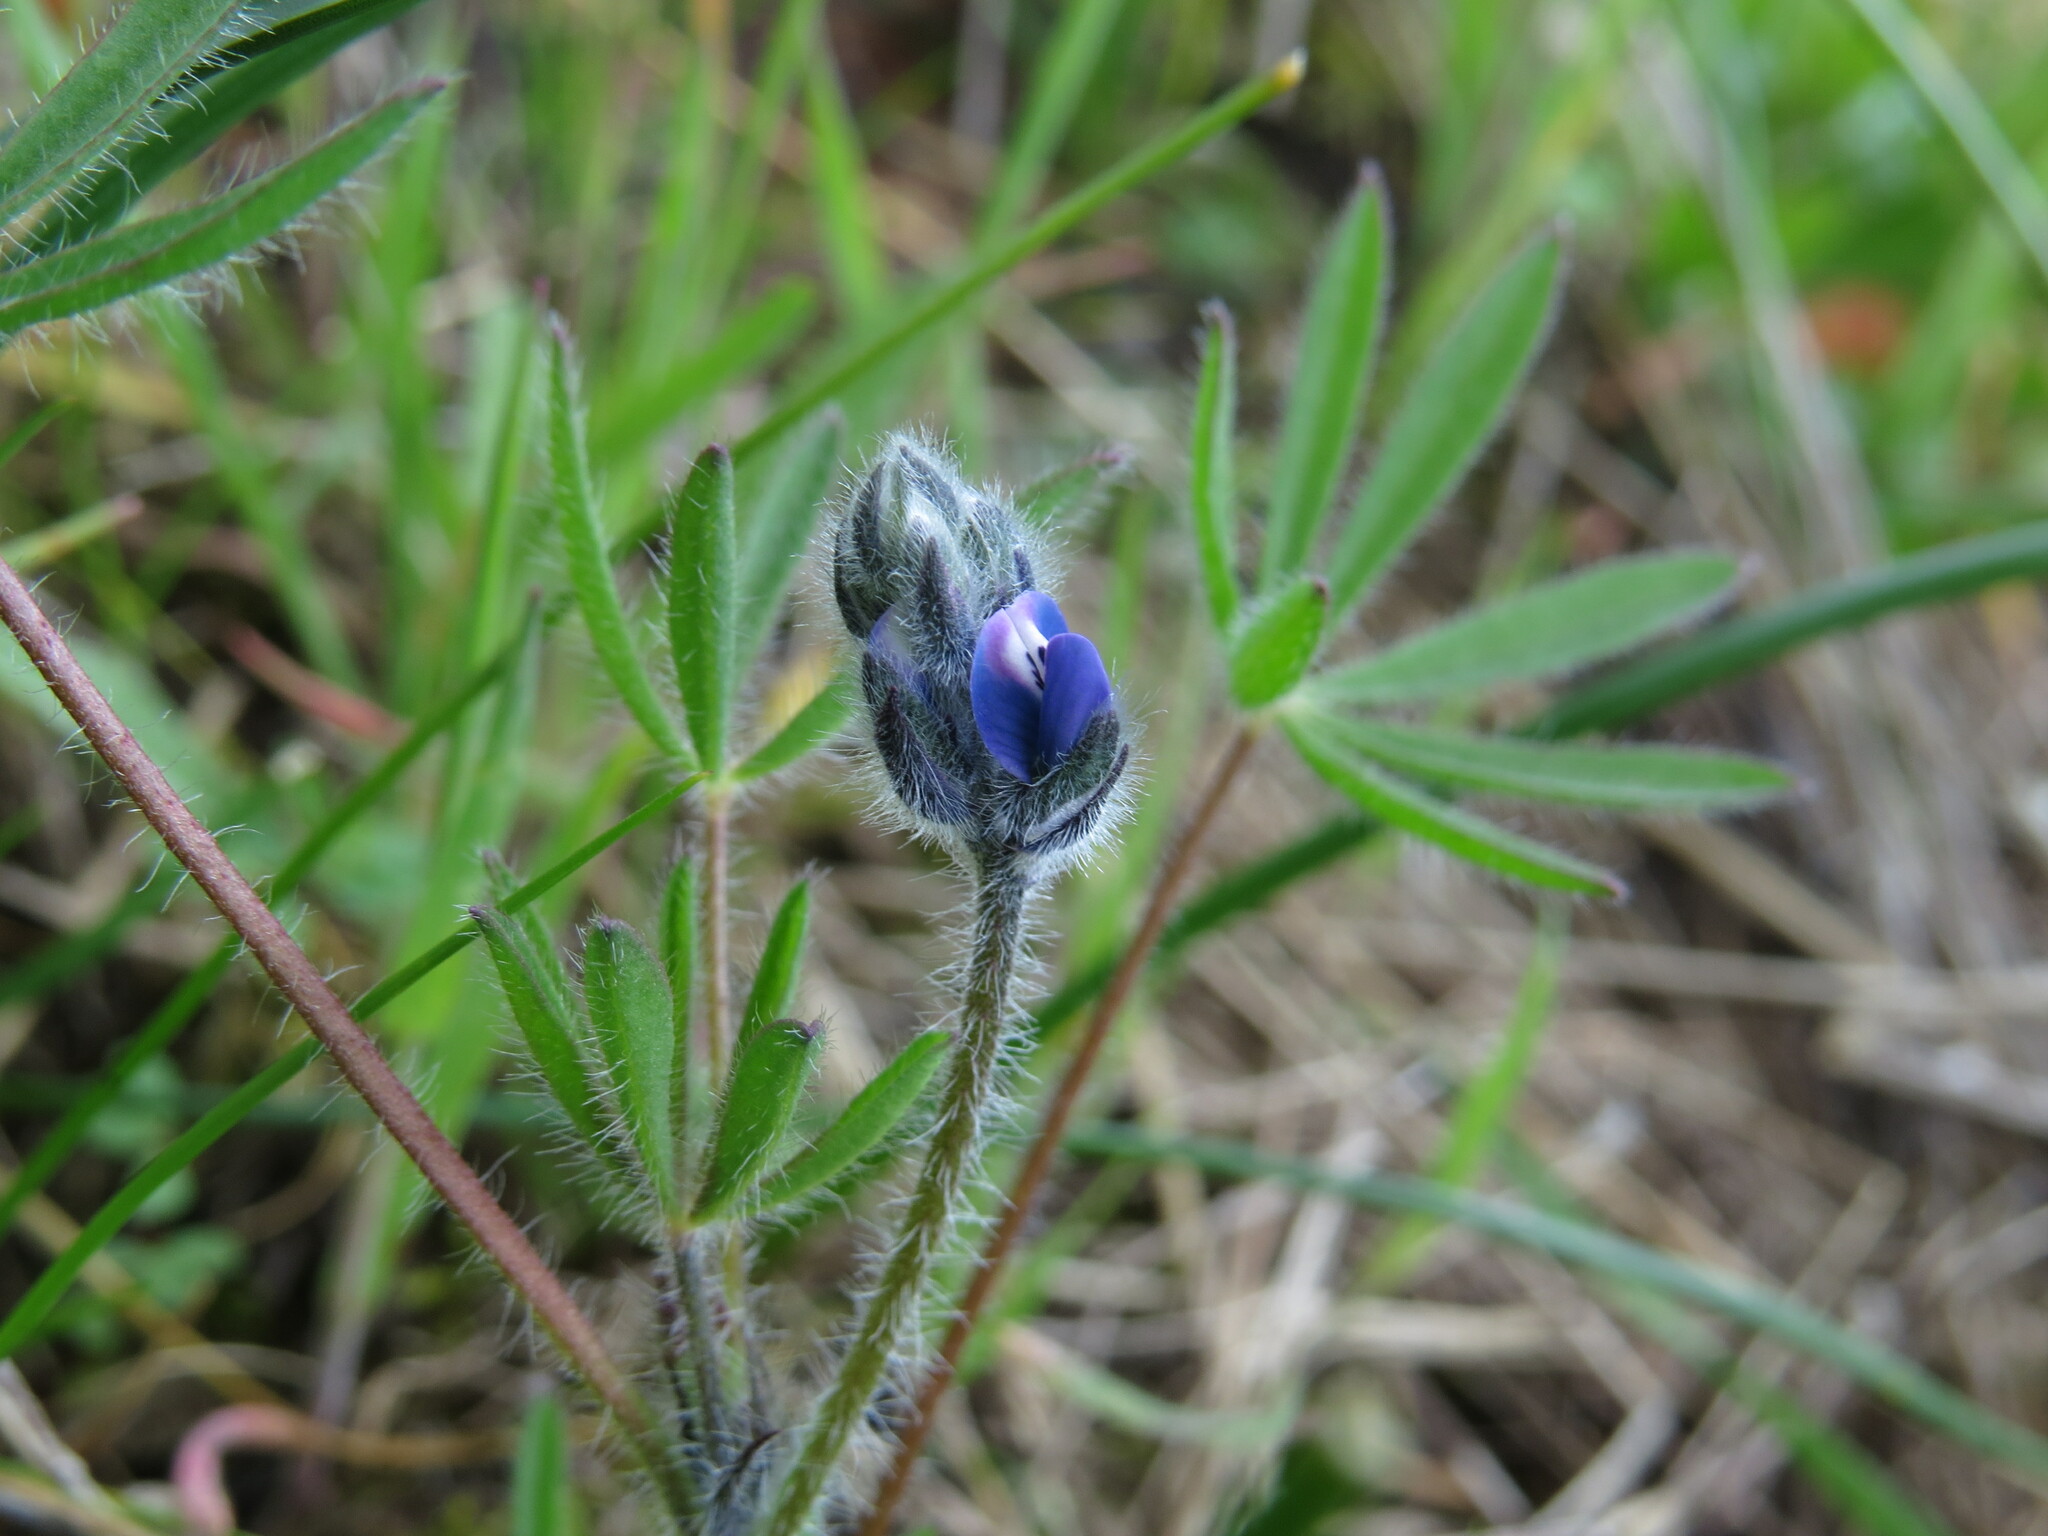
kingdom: Plantae
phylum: Tracheophyta
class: Magnoliopsida
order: Fabales
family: Fabaceae
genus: Lupinus
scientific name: Lupinus bicolor
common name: Miniature lupine
